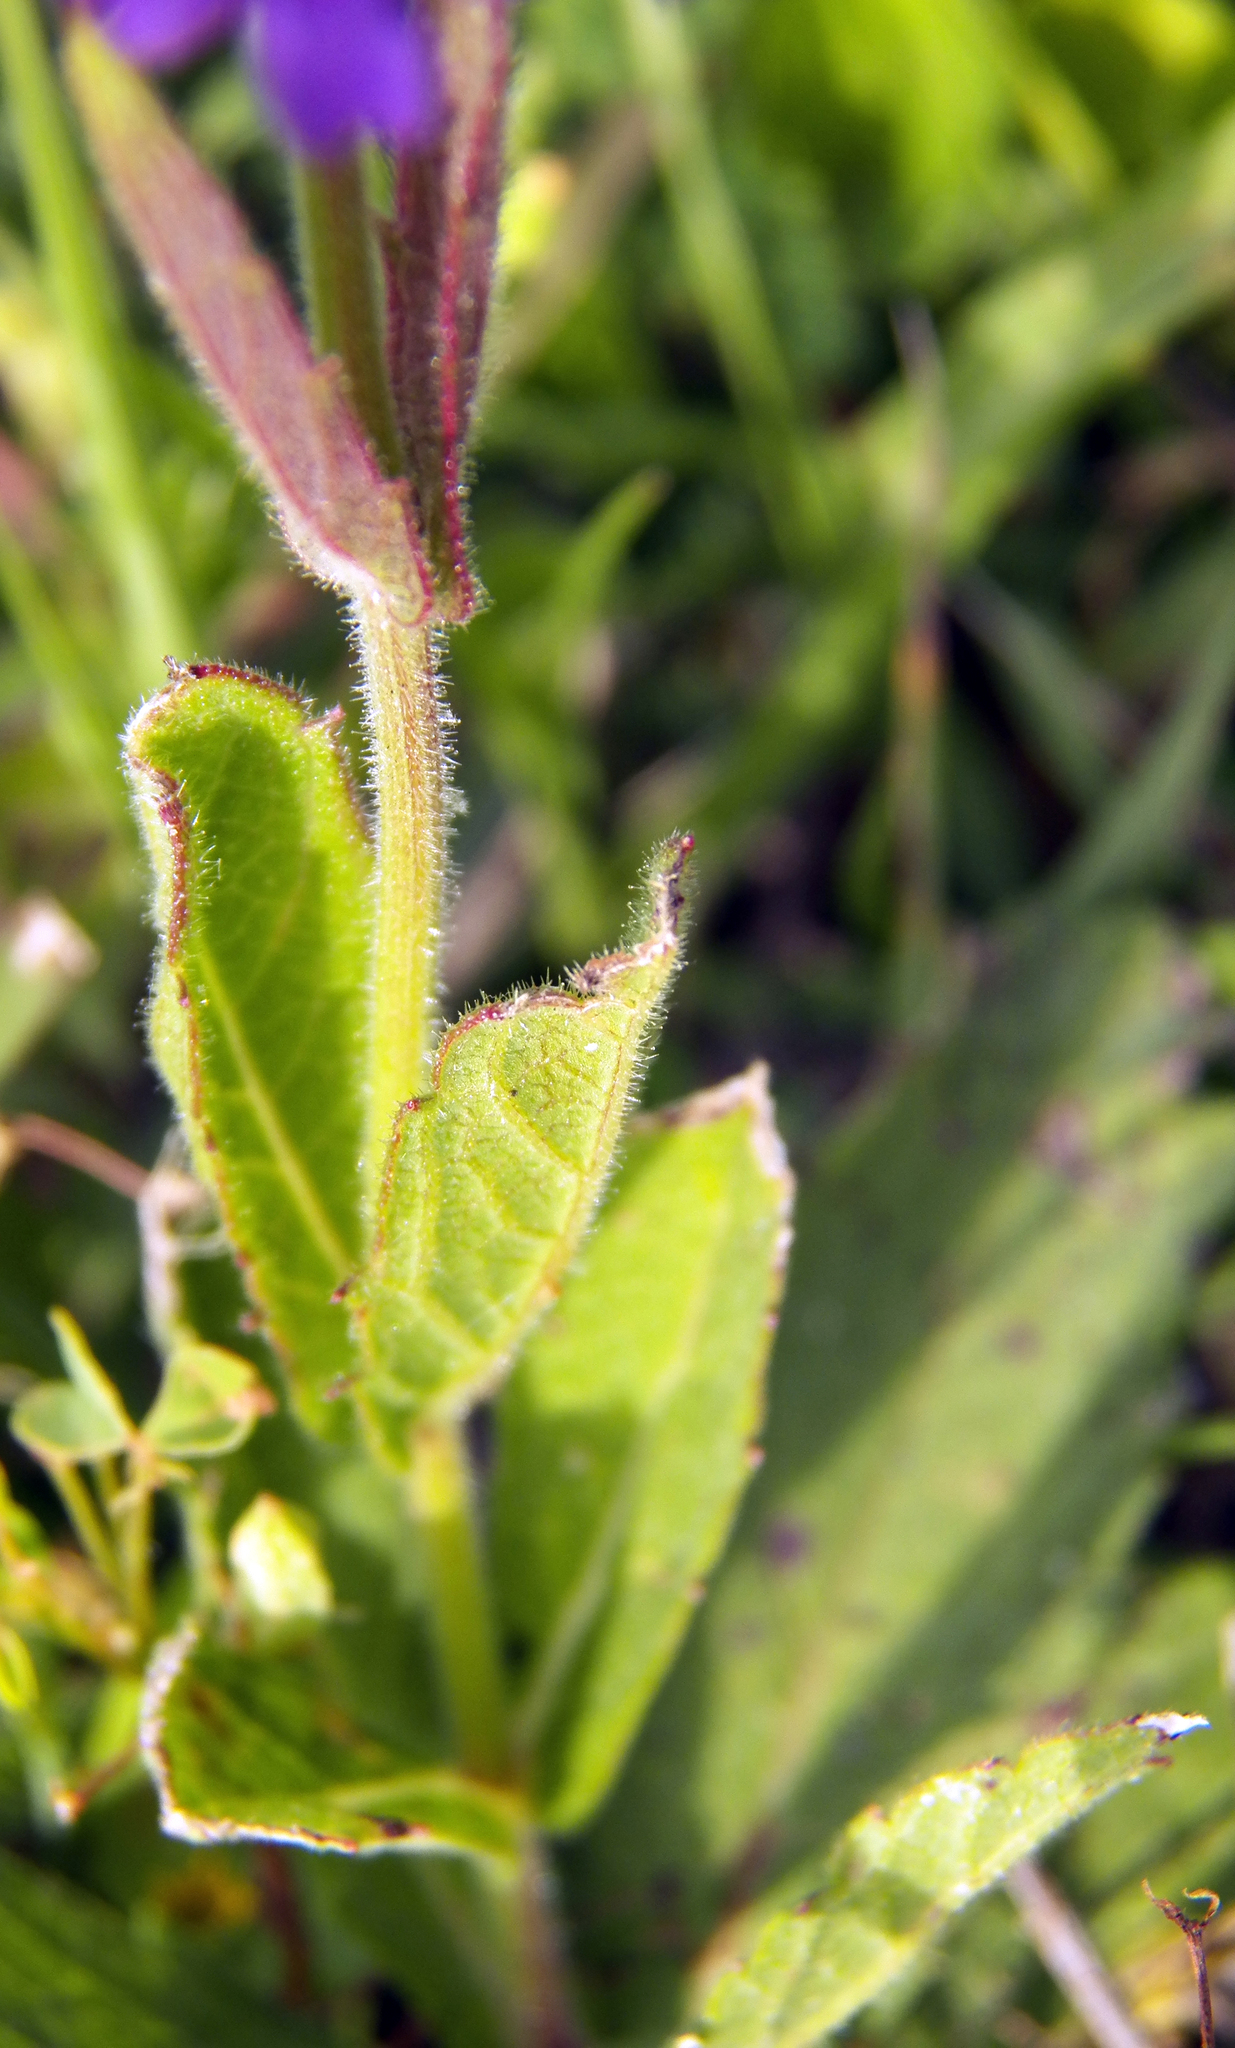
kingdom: Plantae
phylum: Tracheophyta
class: Magnoliopsida
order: Lamiales
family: Verbenaceae
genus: Verbena
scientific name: Verbena rigida
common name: Slender vervain
